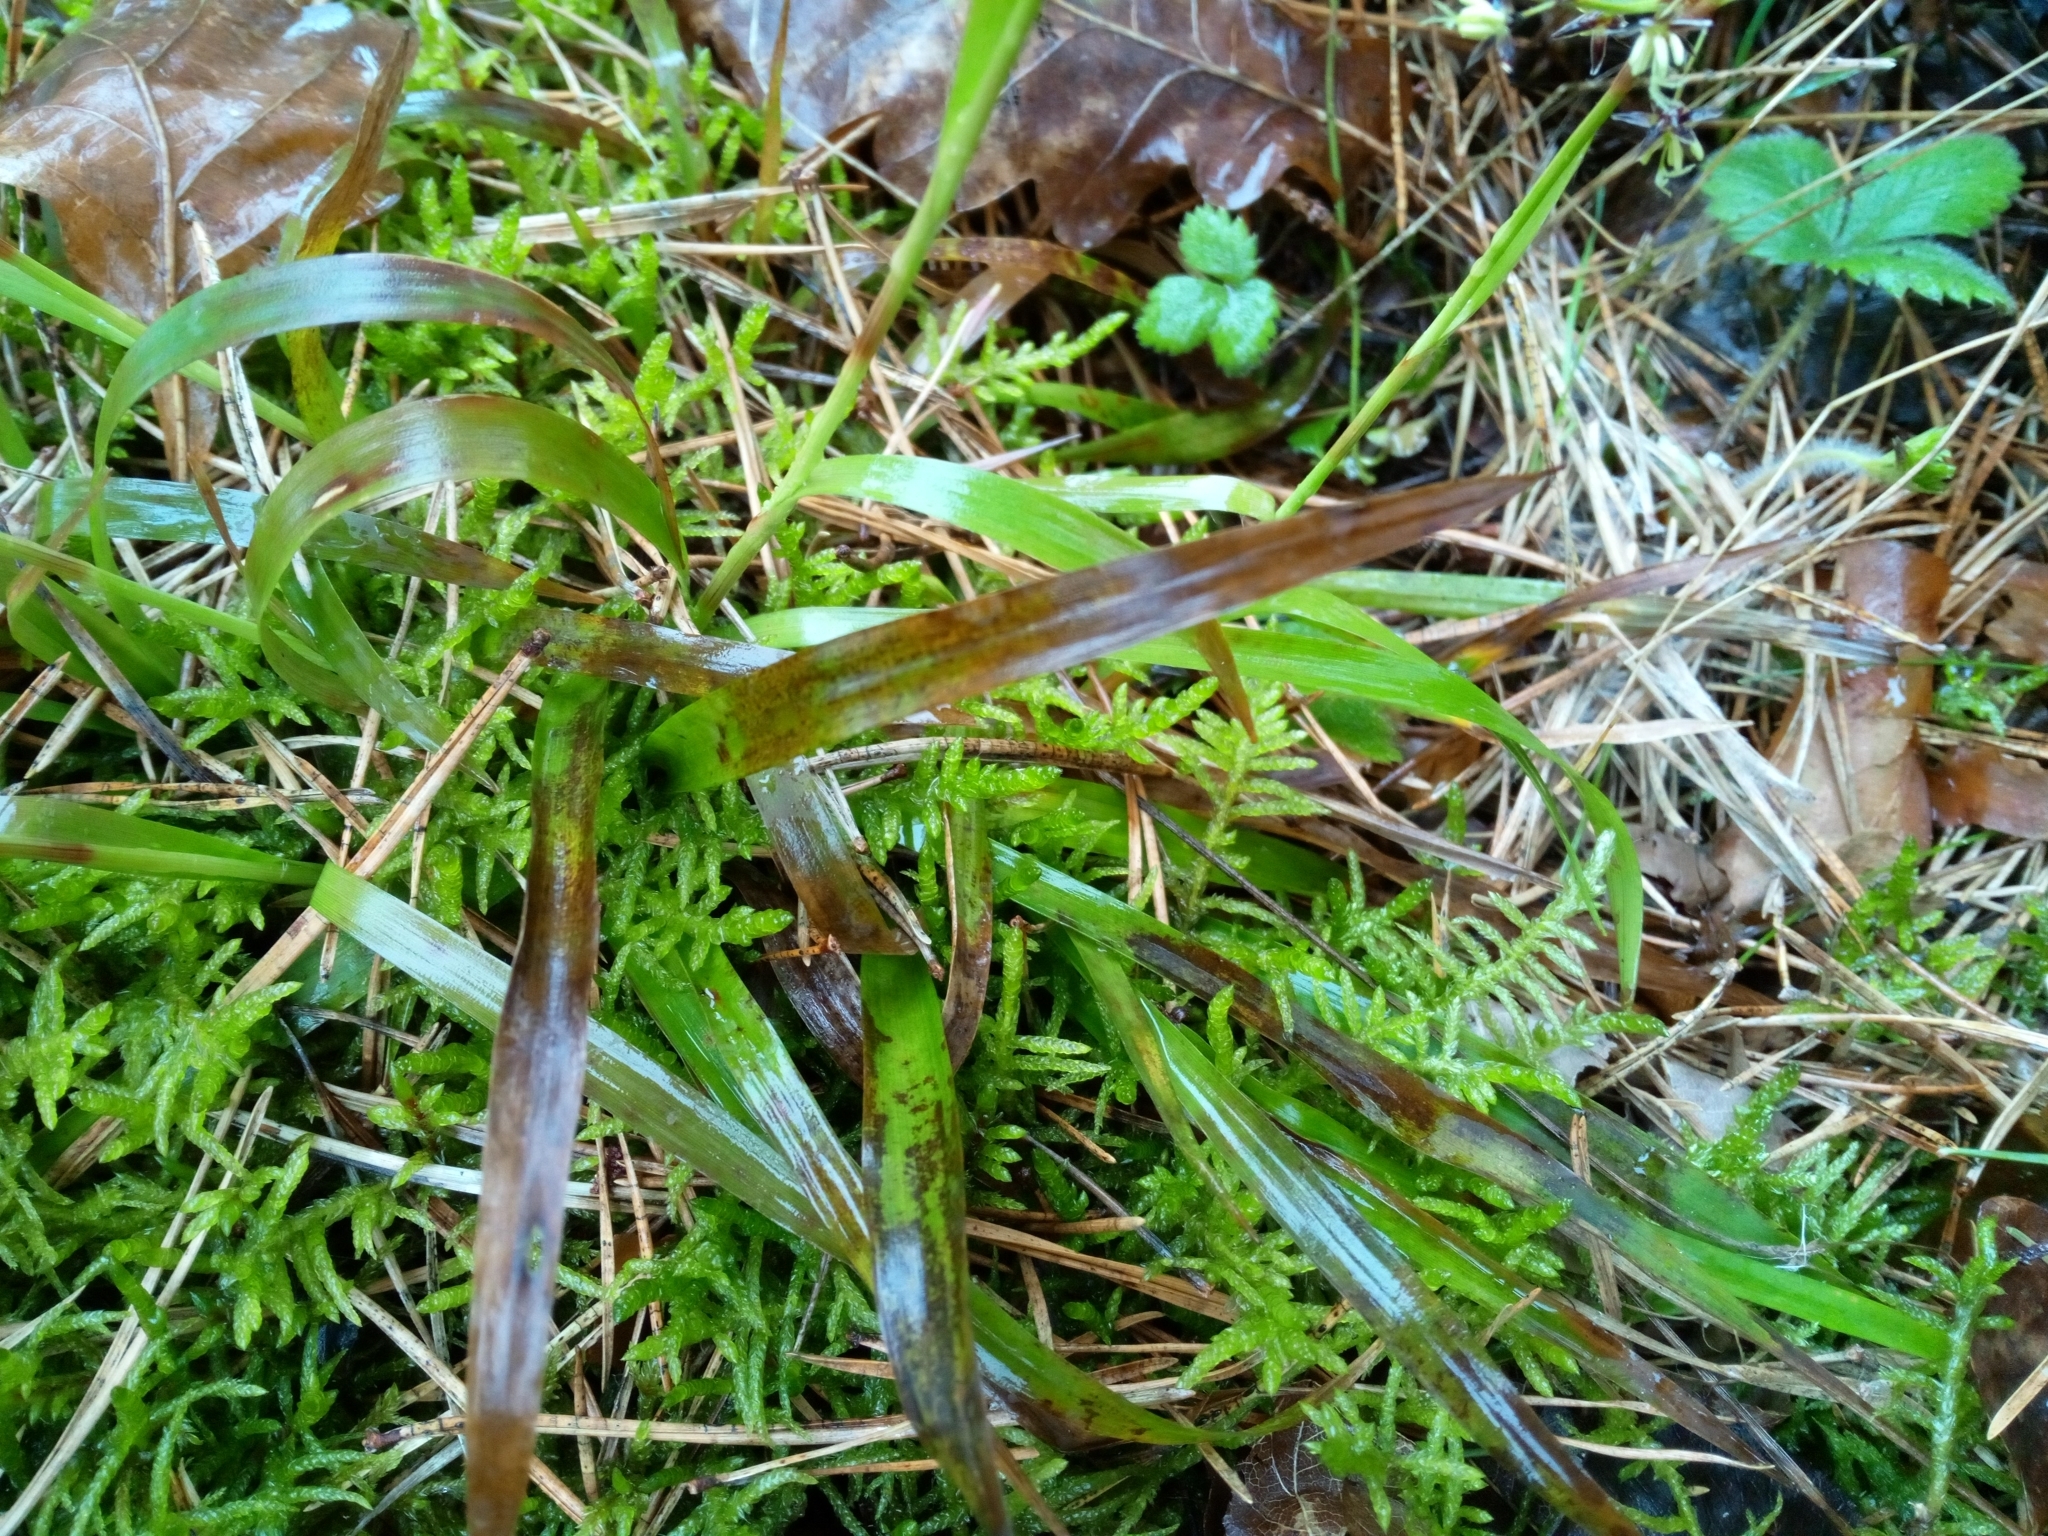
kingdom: Plantae
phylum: Tracheophyta
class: Liliopsida
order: Poales
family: Juncaceae
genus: Luzula
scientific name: Luzula pilosa
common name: Hairy wood-rush
